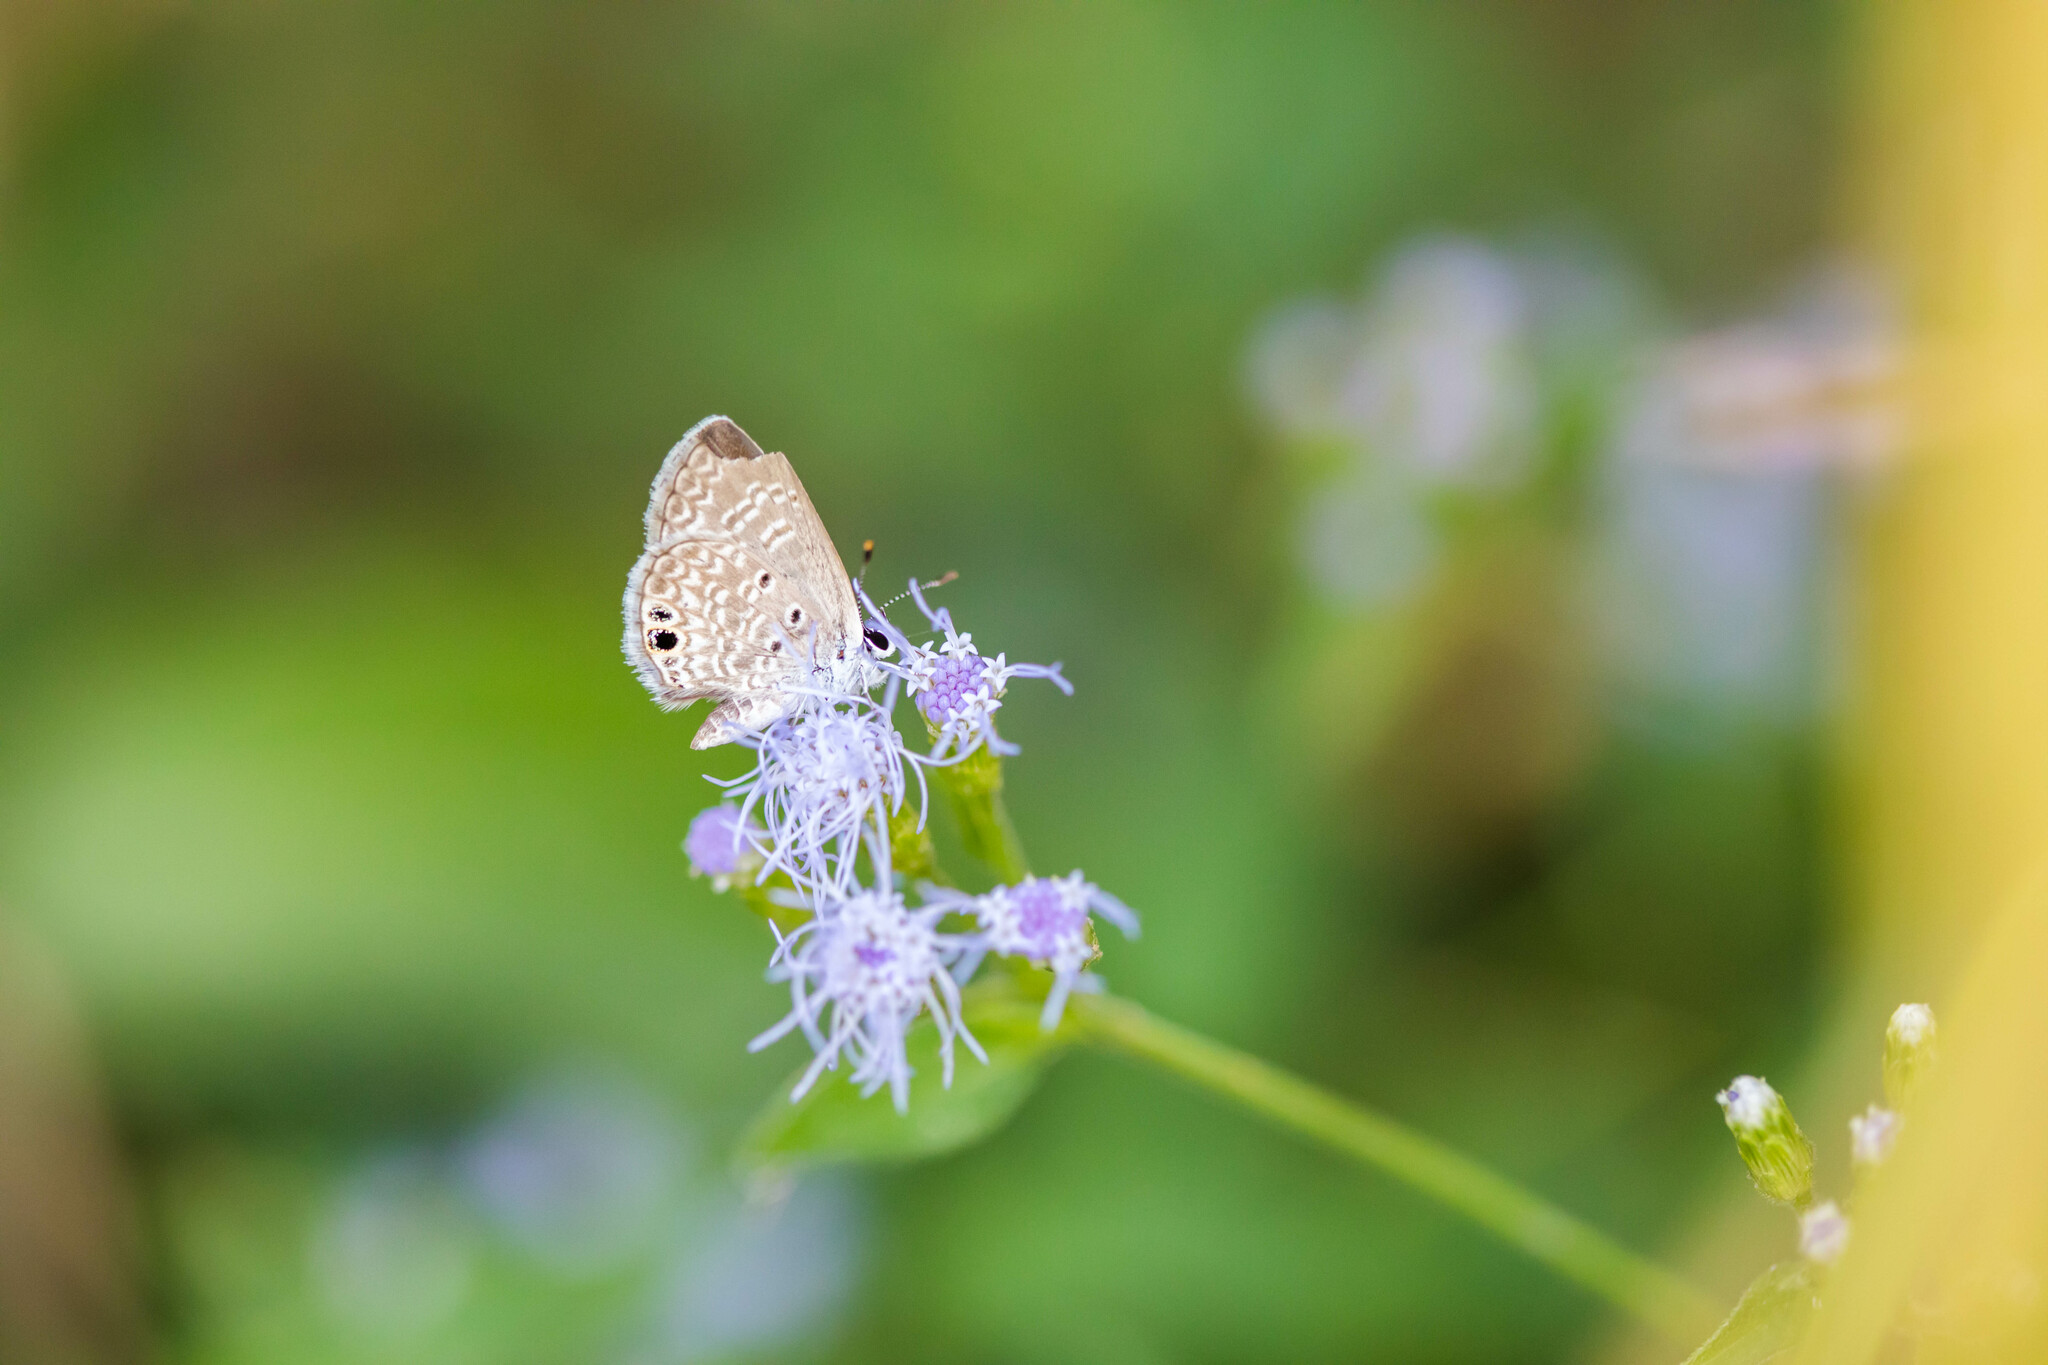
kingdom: Animalia
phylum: Arthropoda
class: Insecta
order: Lepidoptera
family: Lycaenidae
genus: Hemiargus
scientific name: Hemiargus ceraunus
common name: Ceraunus blue
